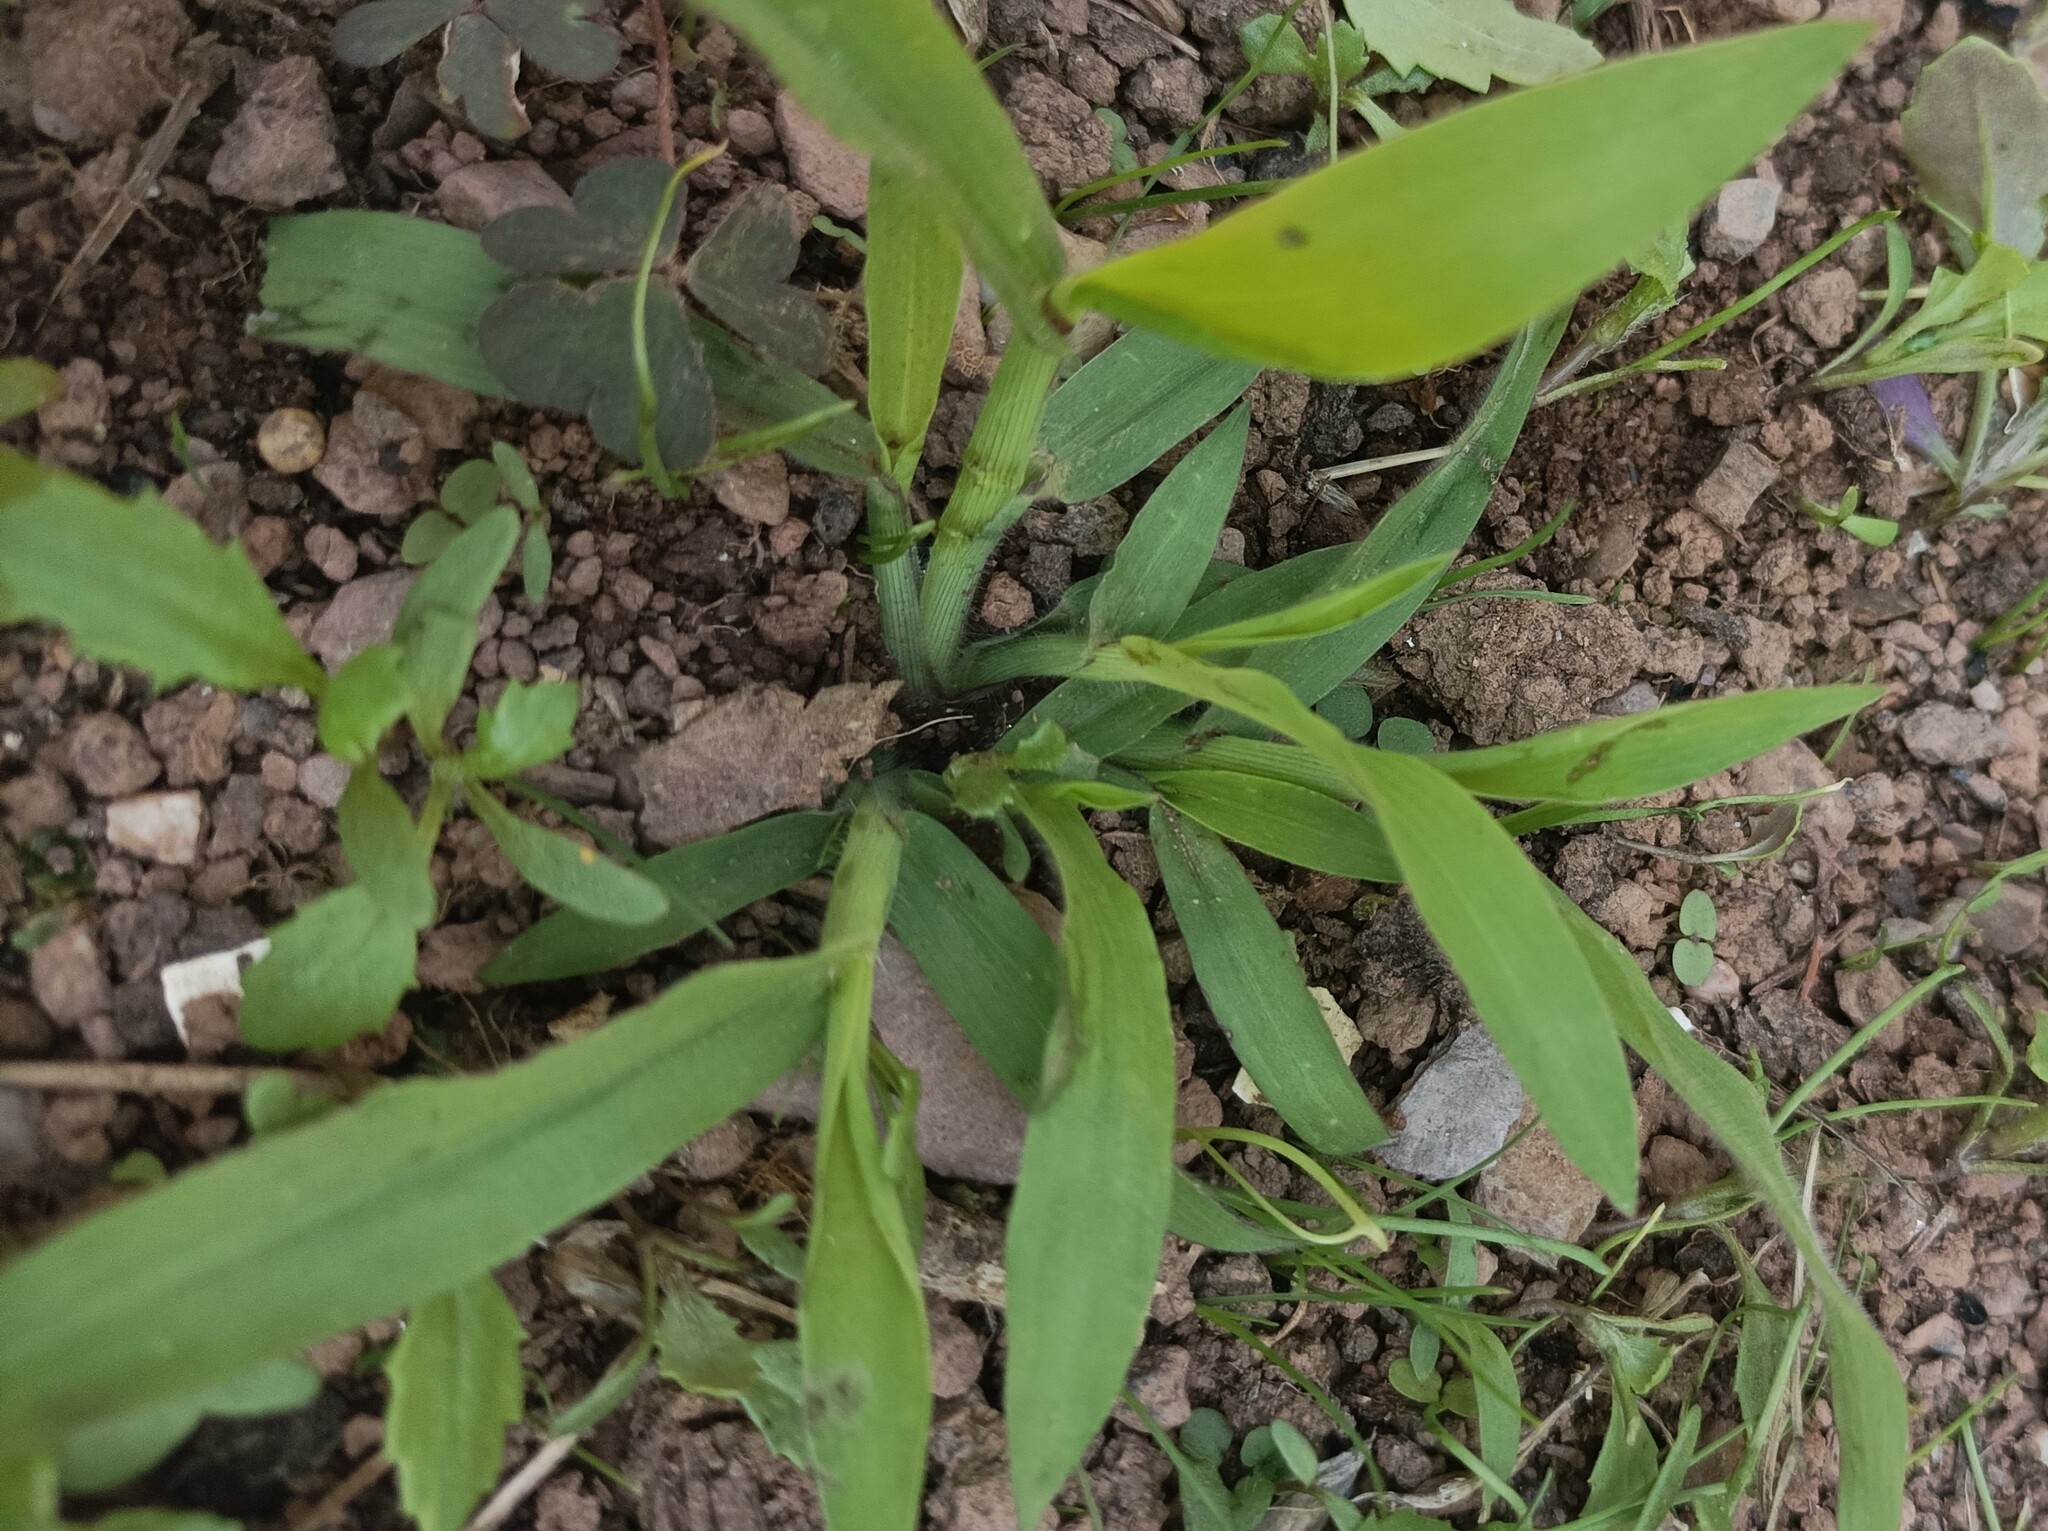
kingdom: Plantae
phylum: Tracheophyta
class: Liliopsida
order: Poales
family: Poaceae
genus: Digitaria
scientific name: Digitaria sanguinalis
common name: Hairy crabgrass
